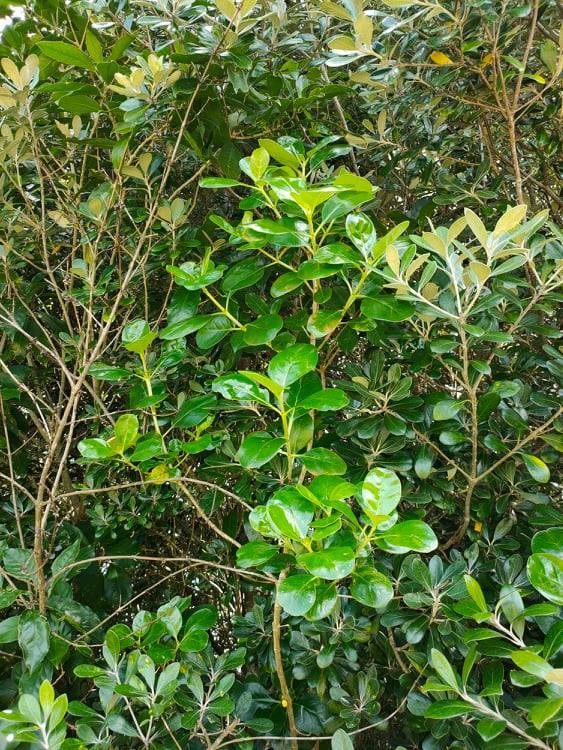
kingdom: Plantae
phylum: Tracheophyta
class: Magnoliopsida
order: Gentianales
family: Rubiaceae
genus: Coprosma
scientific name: Coprosma repens
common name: Tree bedstraw
